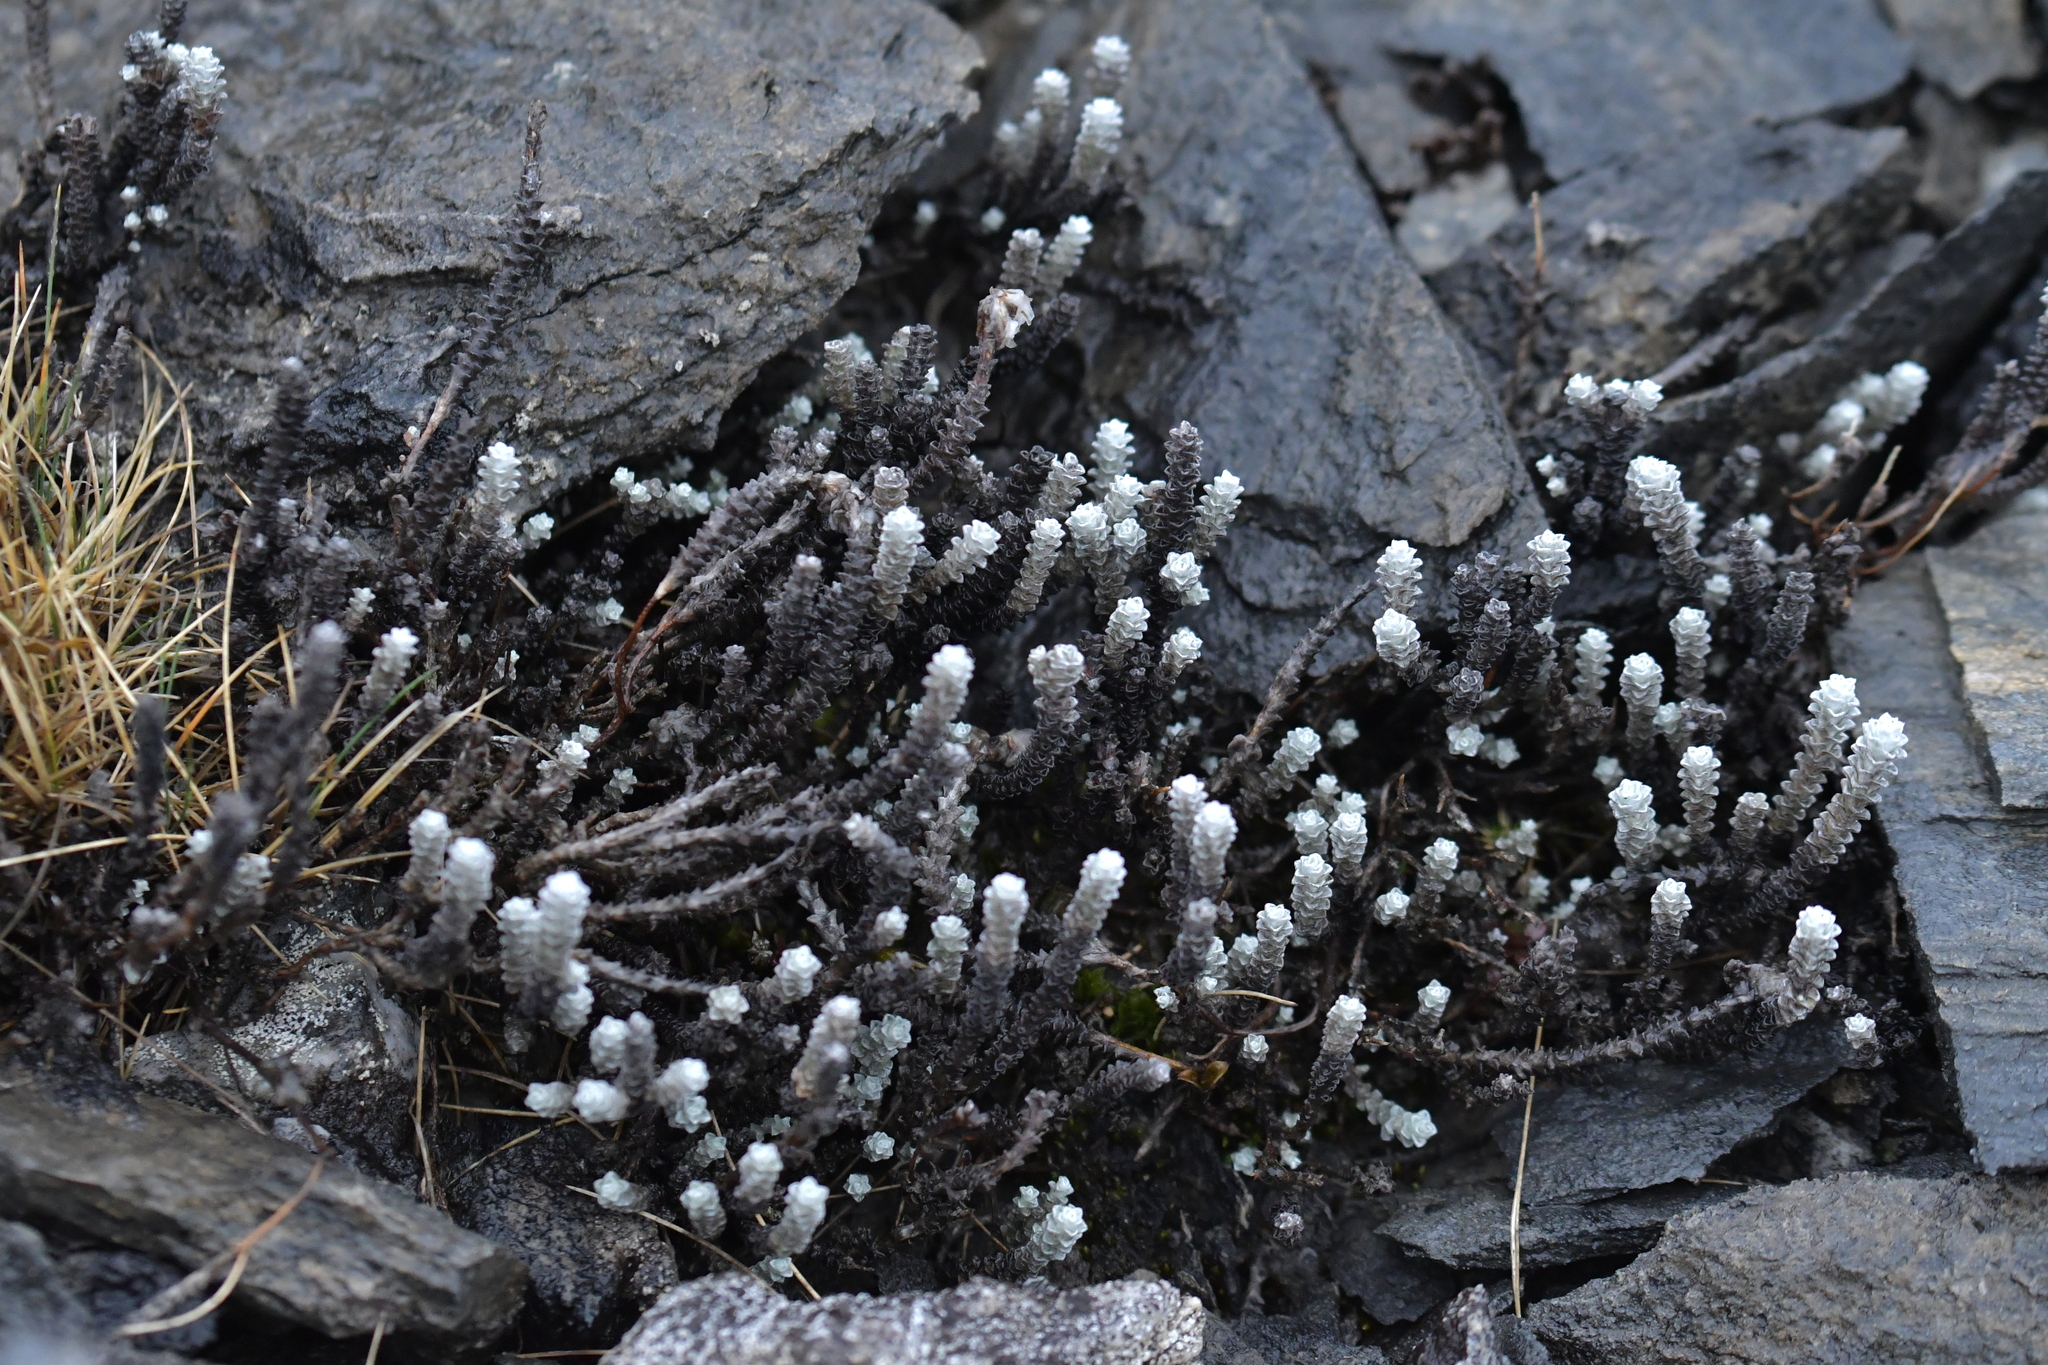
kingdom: Plantae
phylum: Tracheophyta
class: Magnoliopsida
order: Asterales
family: Asteraceae
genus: Leucogenes
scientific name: Leucogenes grandiceps
